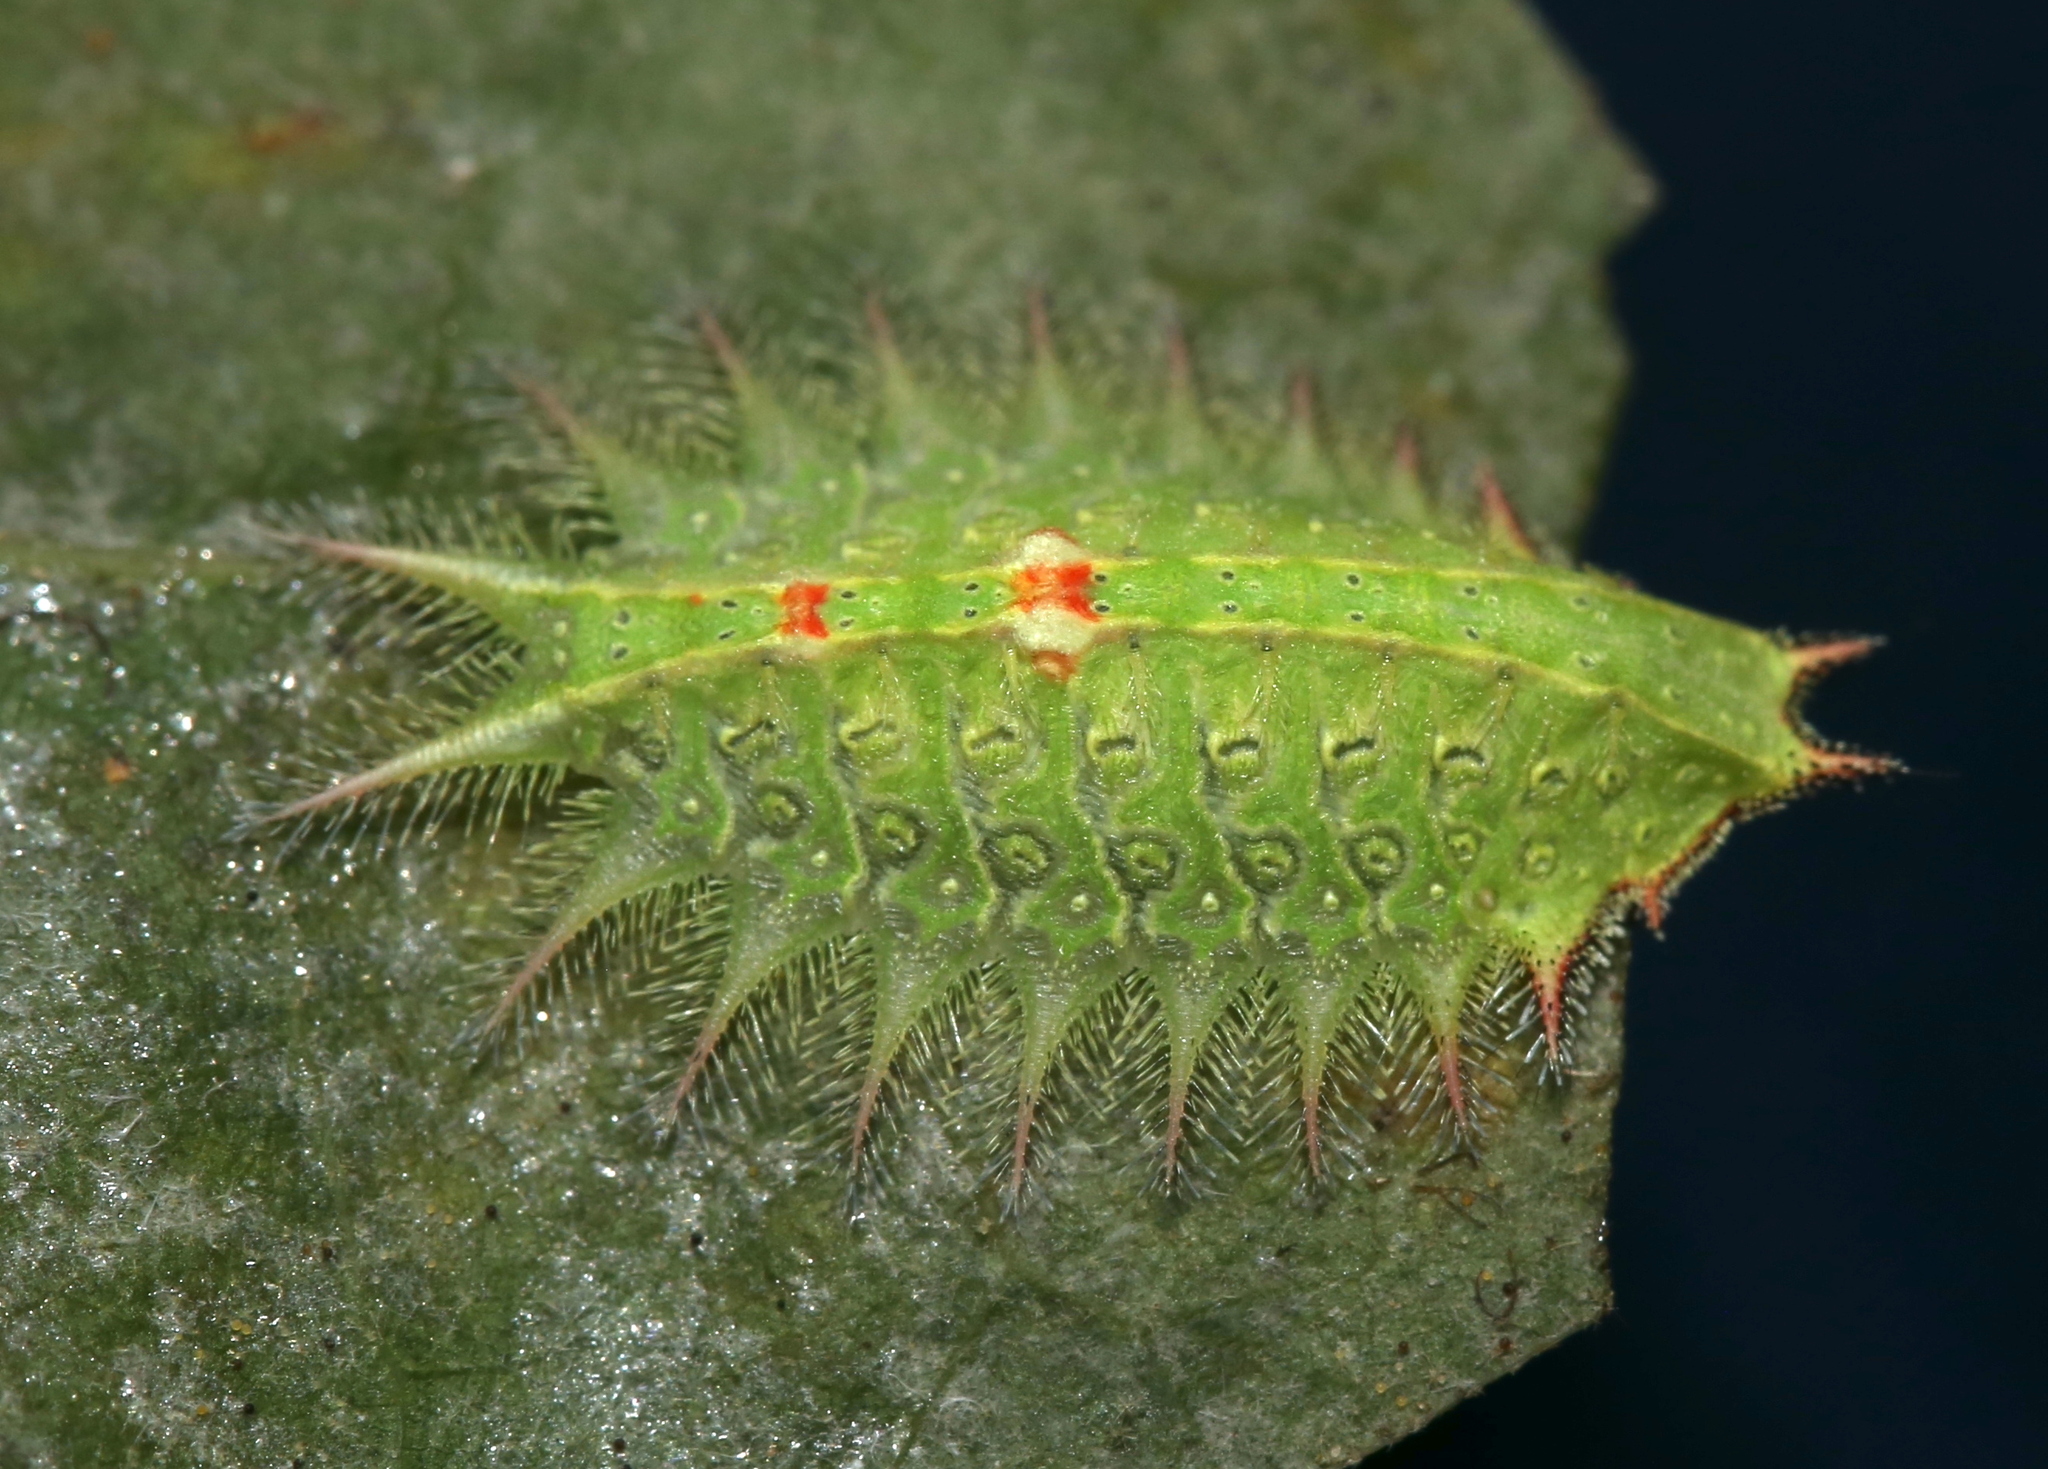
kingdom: Animalia
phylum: Arthropoda
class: Insecta
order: Lepidoptera
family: Limacodidae
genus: Isa
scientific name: Isa textula
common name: Crowned slug moth
